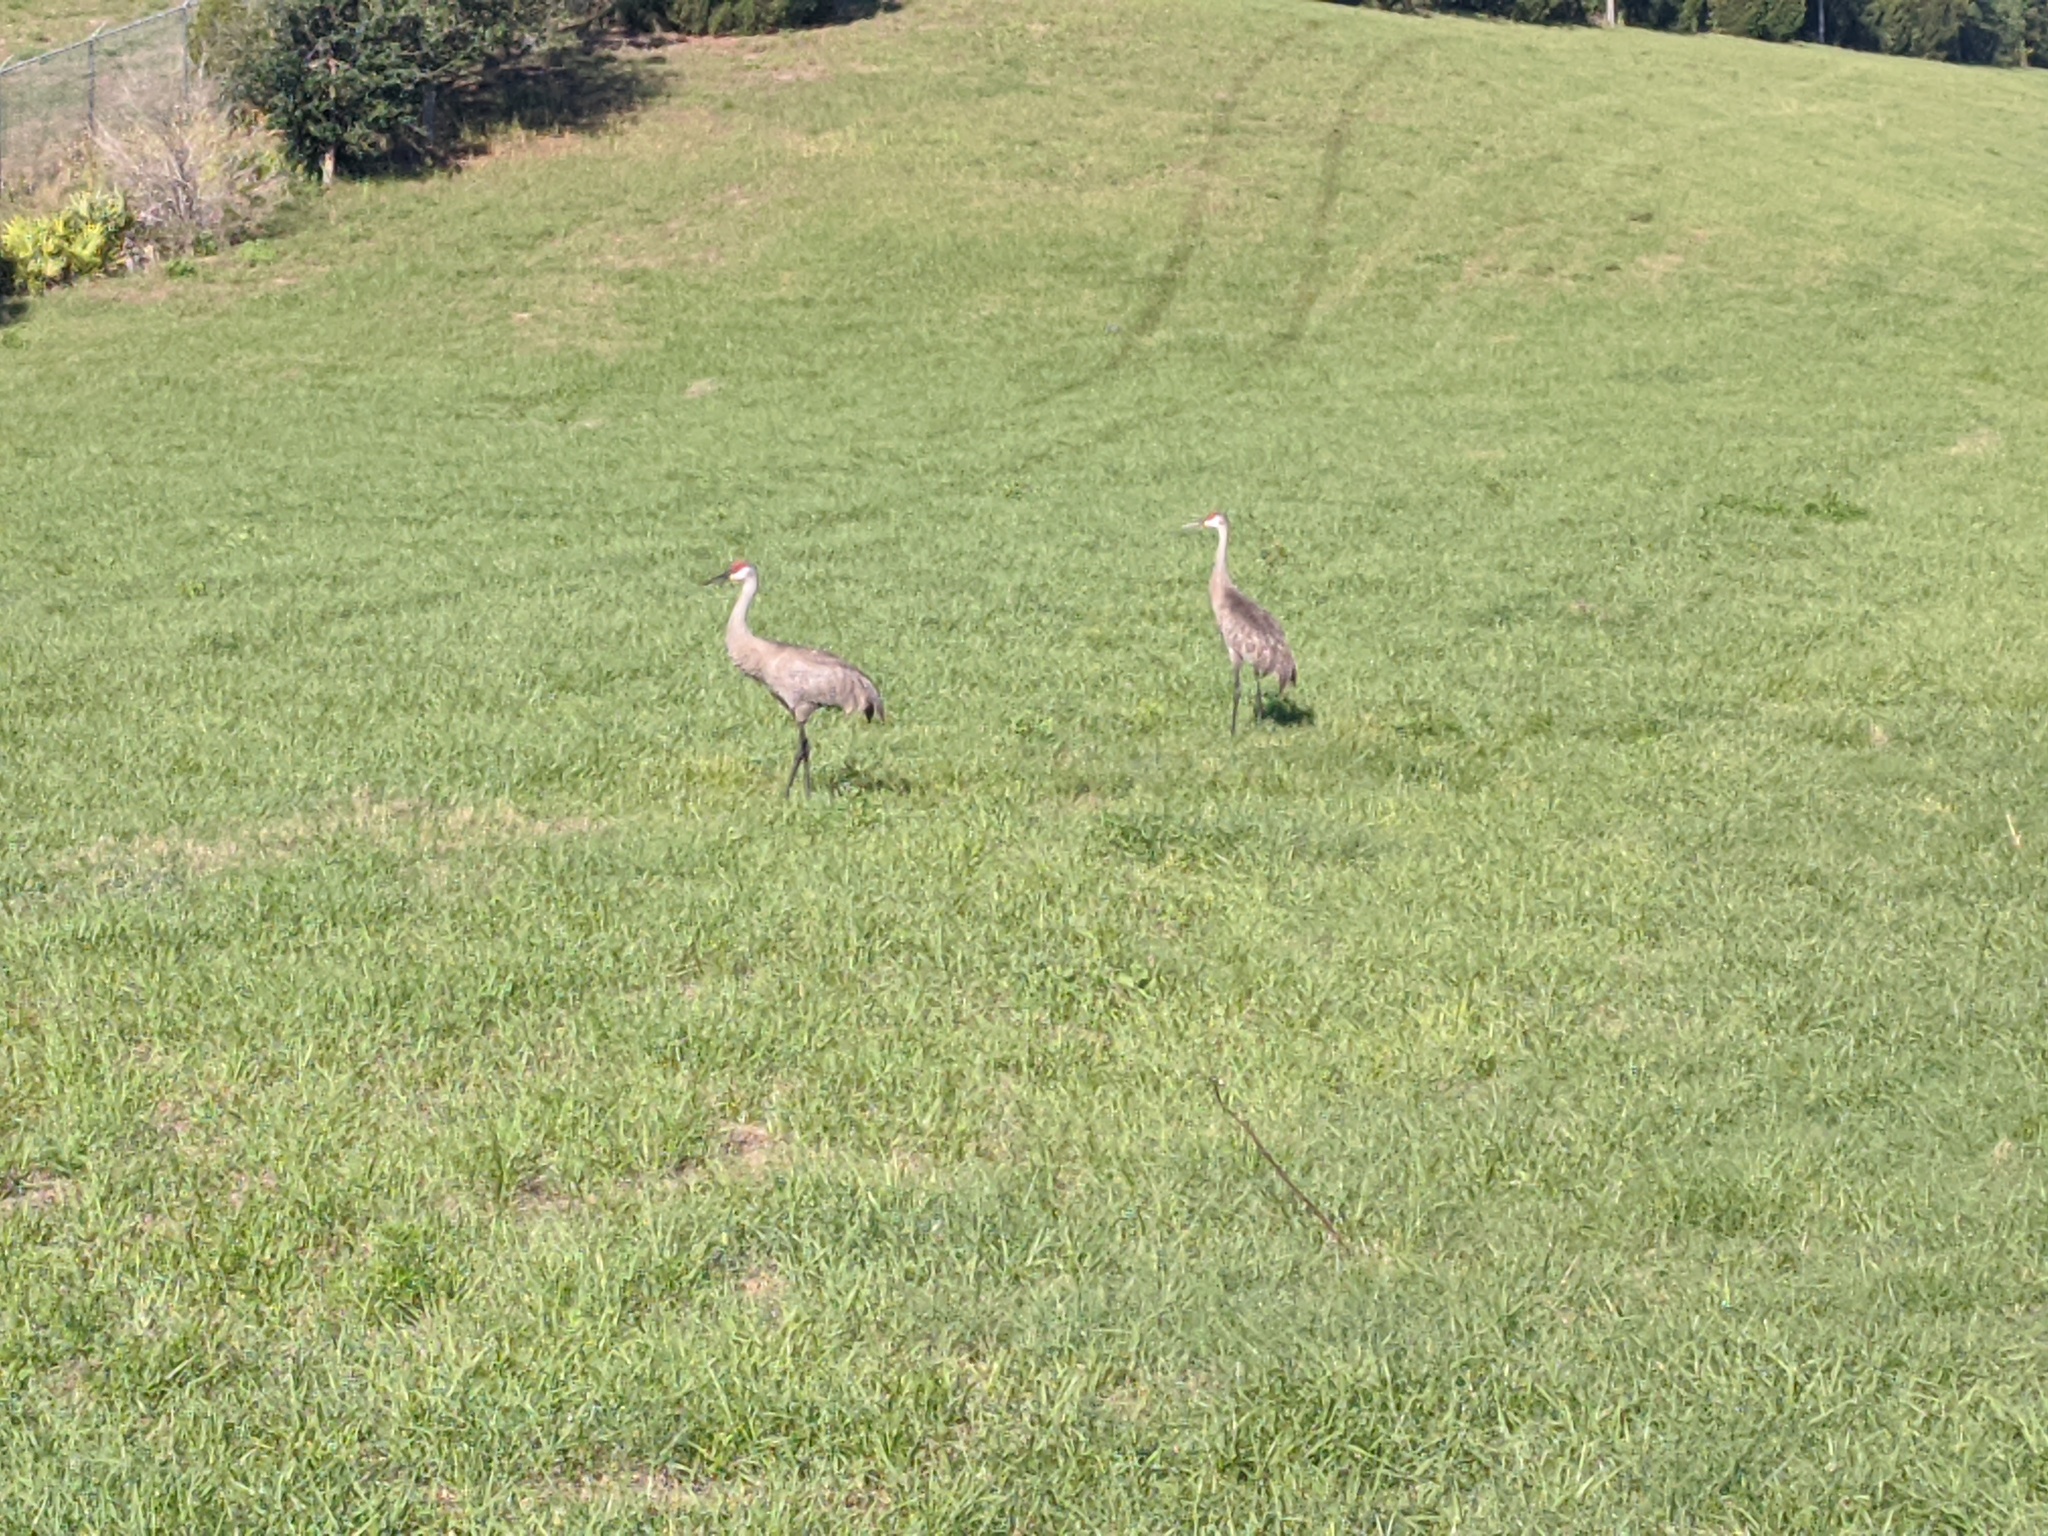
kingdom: Animalia
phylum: Chordata
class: Aves
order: Gruiformes
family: Gruidae
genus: Grus
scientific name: Grus canadensis
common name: Sandhill crane
